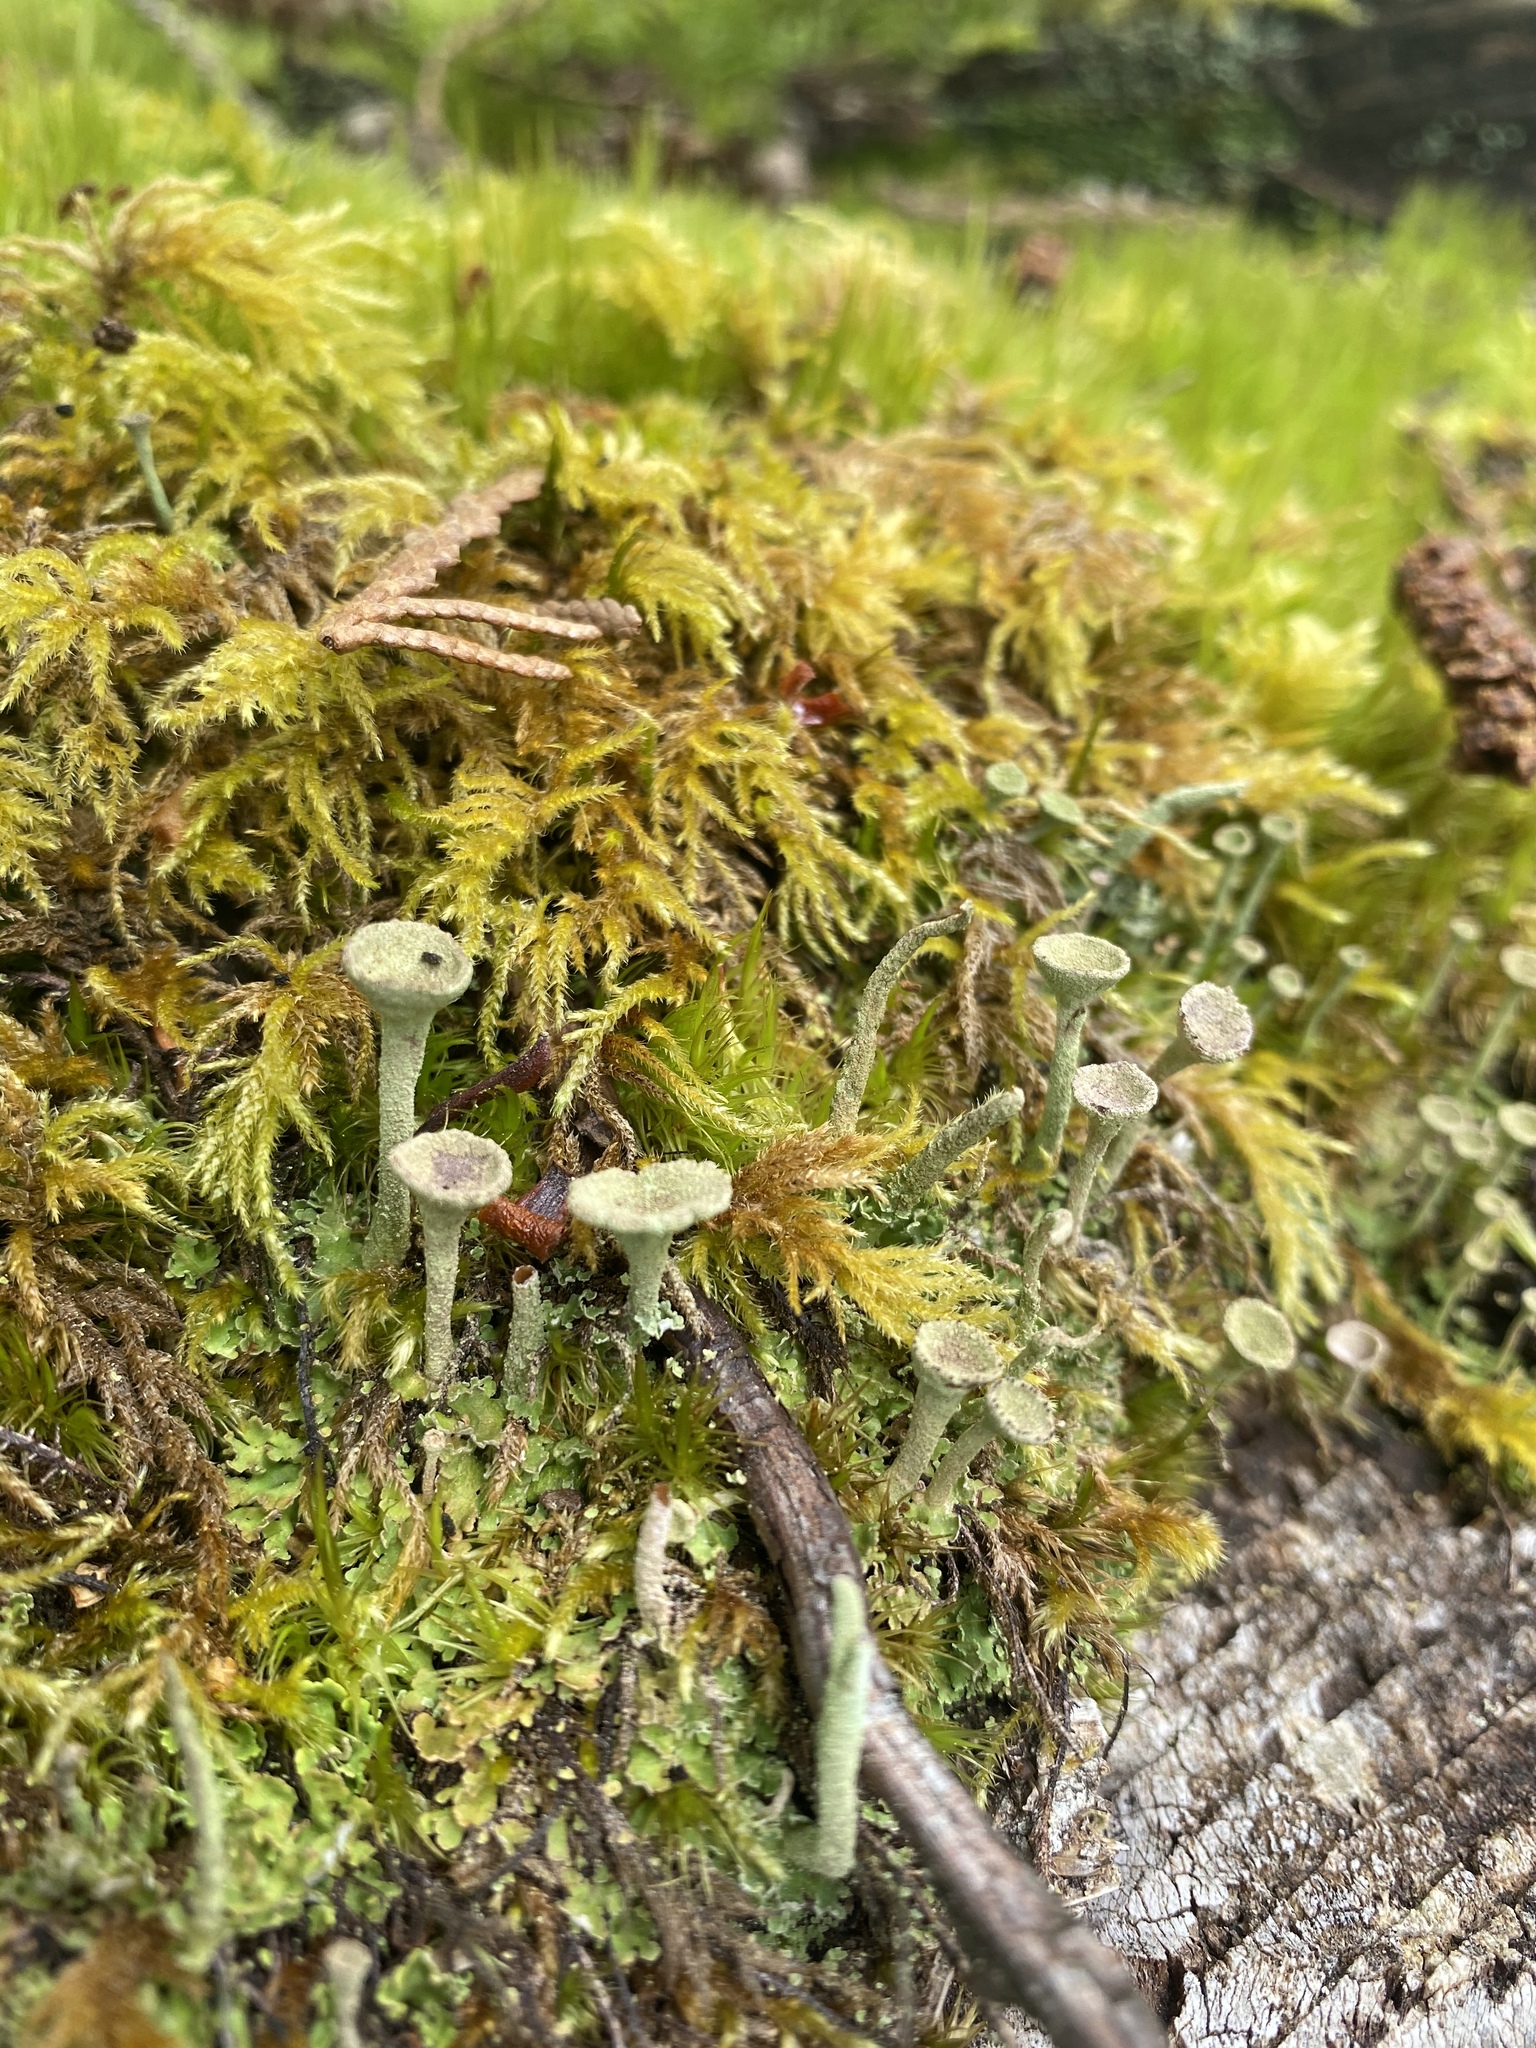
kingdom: Fungi
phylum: Ascomycota
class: Lecanoromycetes
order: Lecanorales
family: Cladoniaceae
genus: Cladonia
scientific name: Cladonia fimbriata
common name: Powdered trumpet lichen
